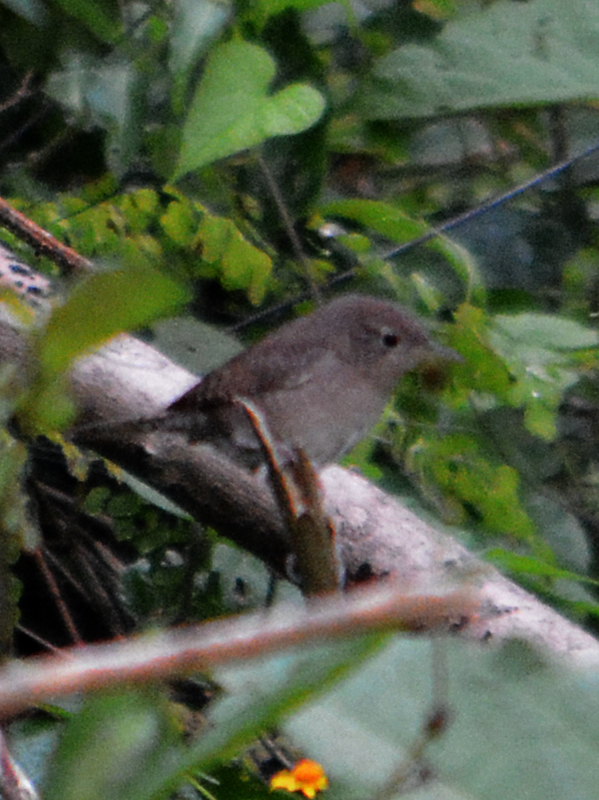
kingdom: Animalia
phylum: Chordata
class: Aves
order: Passeriformes
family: Troglodytidae
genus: Troglodytes
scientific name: Troglodytes aedon
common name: House wren
